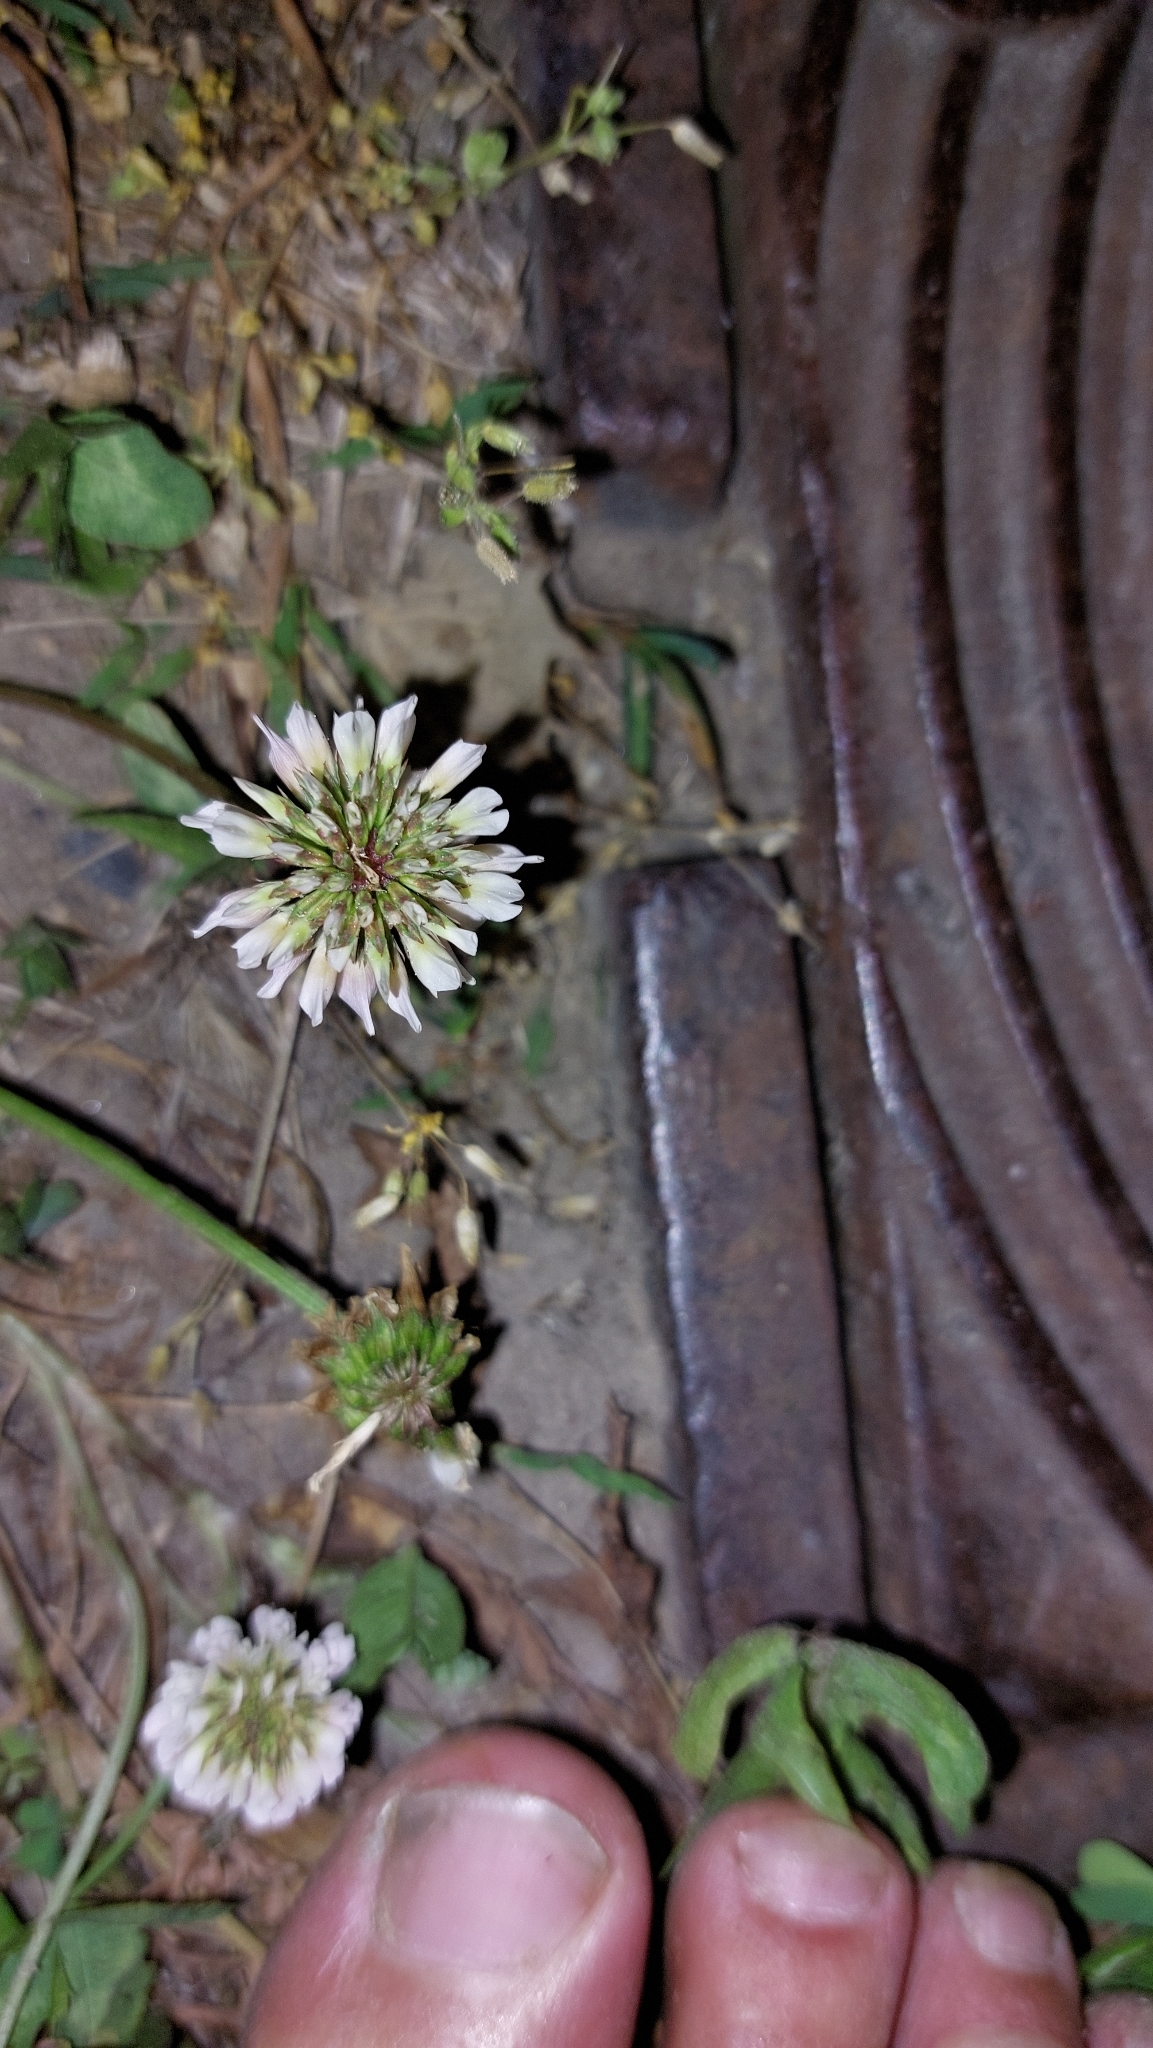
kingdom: Plantae
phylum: Tracheophyta
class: Magnoliopsida
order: Fabales
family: Fabaceae
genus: Trifolium
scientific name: Trifolium repens
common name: White clover
